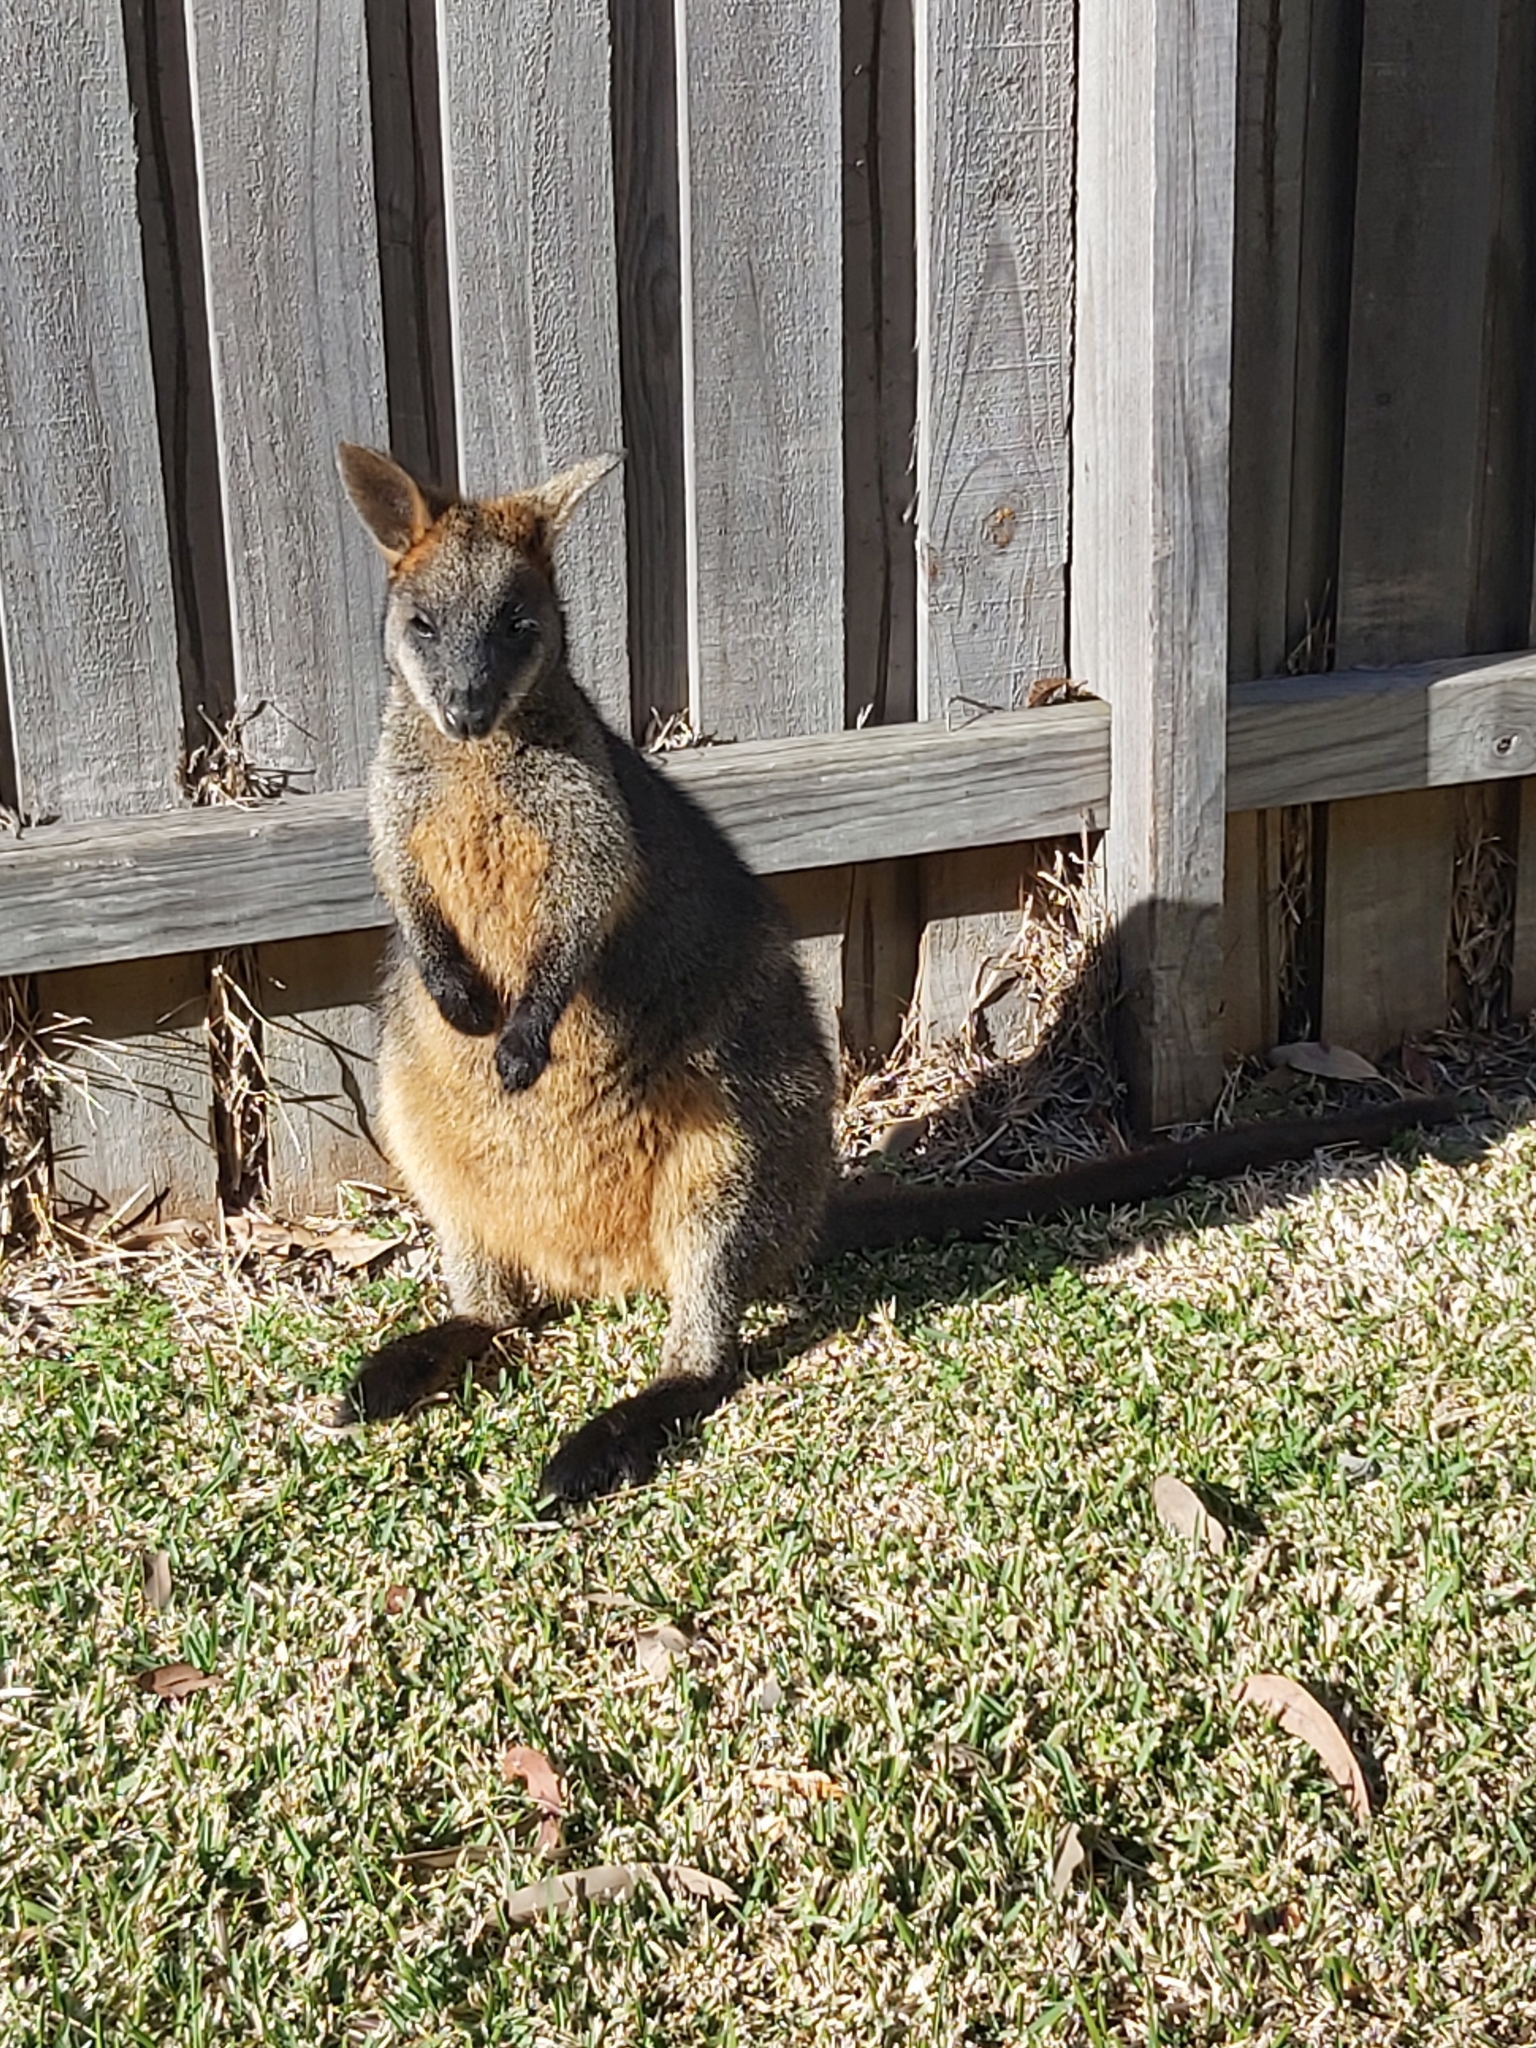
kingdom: Animalia
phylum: Chordata
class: Mammalia
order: Diprotodontia
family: Macropodidae
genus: Wallabia
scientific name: Wallabia bicolor
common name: Swamp wallaby
